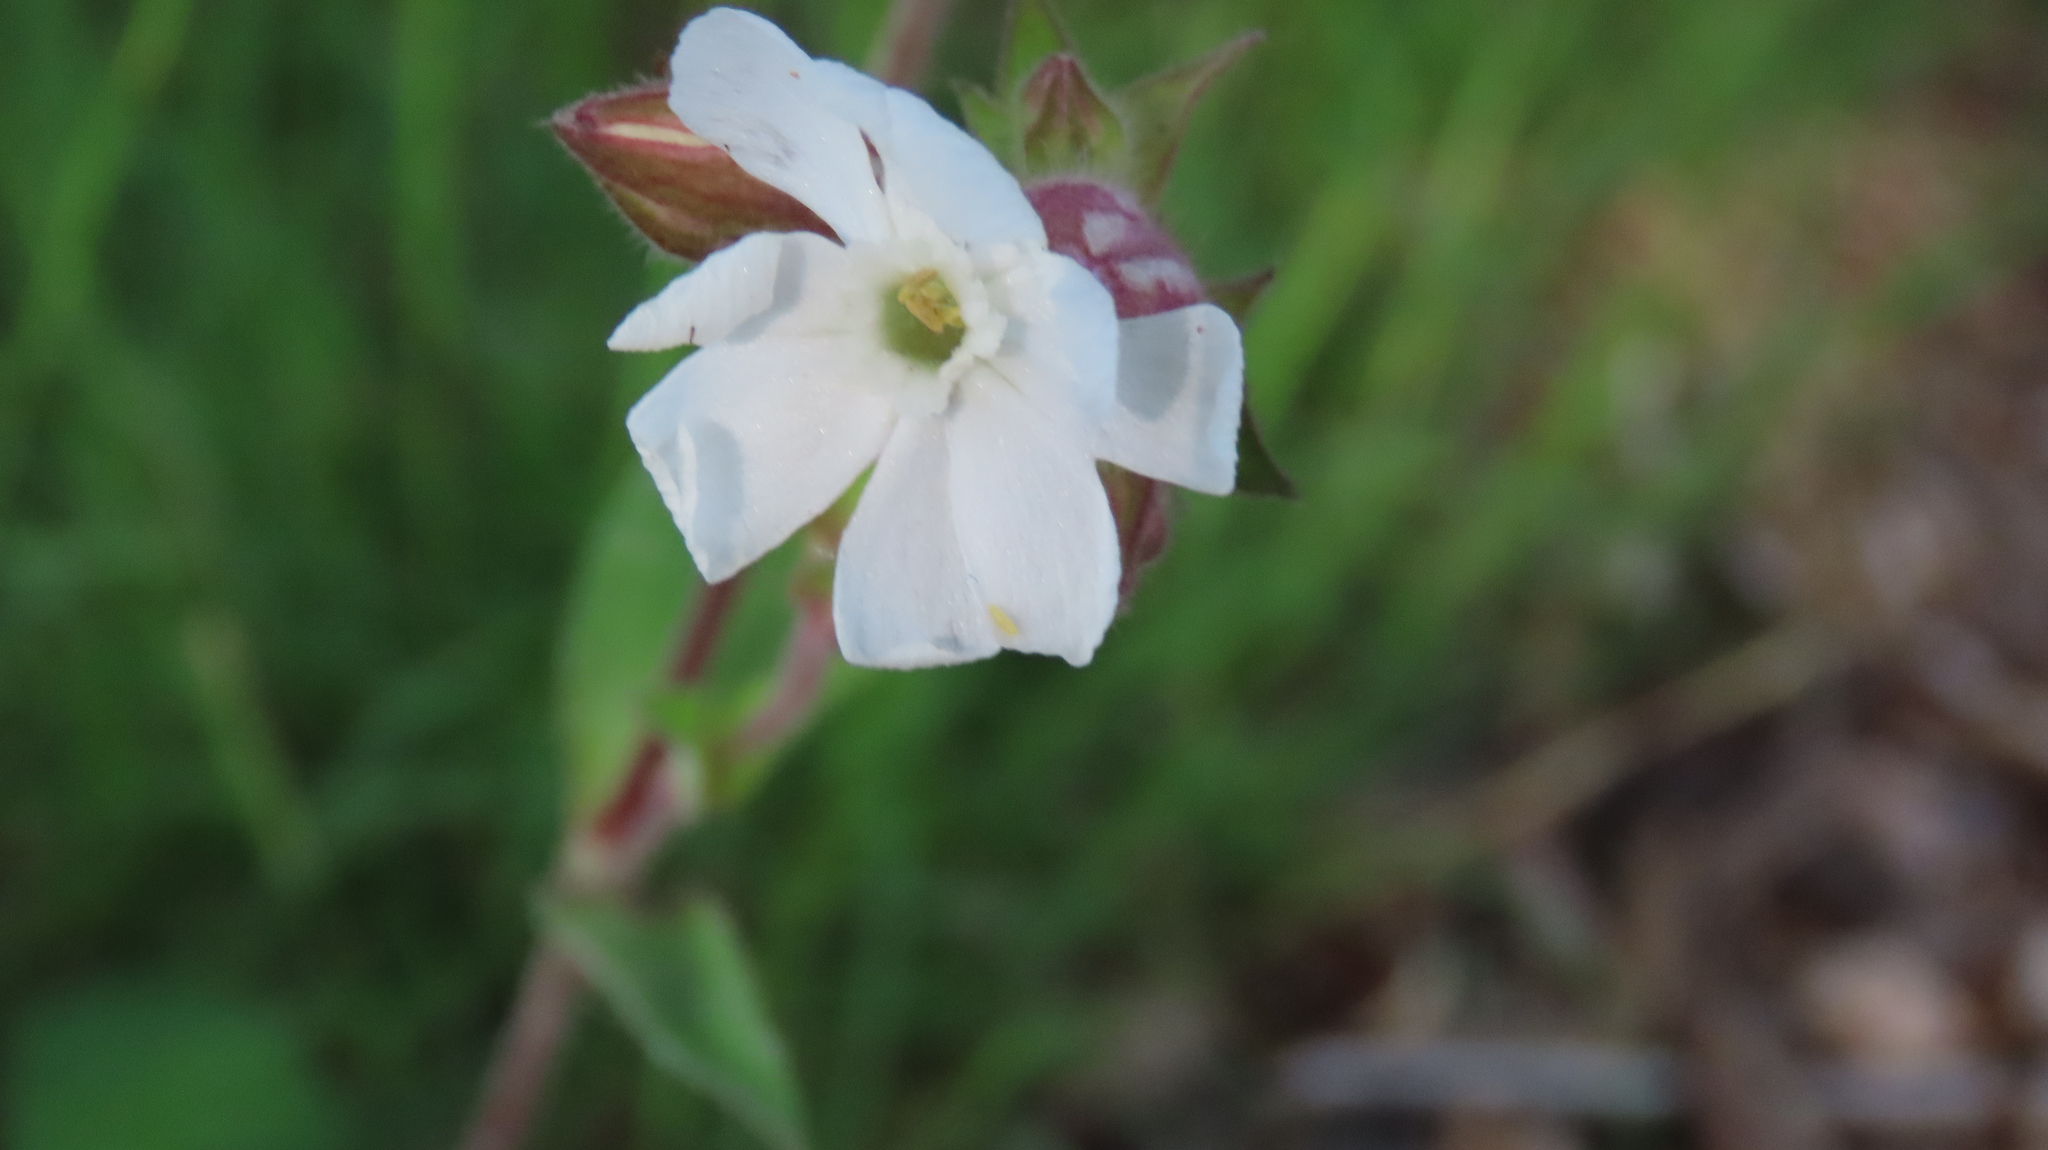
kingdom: Plantae
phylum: Tracheophyta
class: Magnoliopsida
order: Caryophyllales
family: Caryophyllaceae
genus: Silene
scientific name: Silene latifolia
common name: White campion
